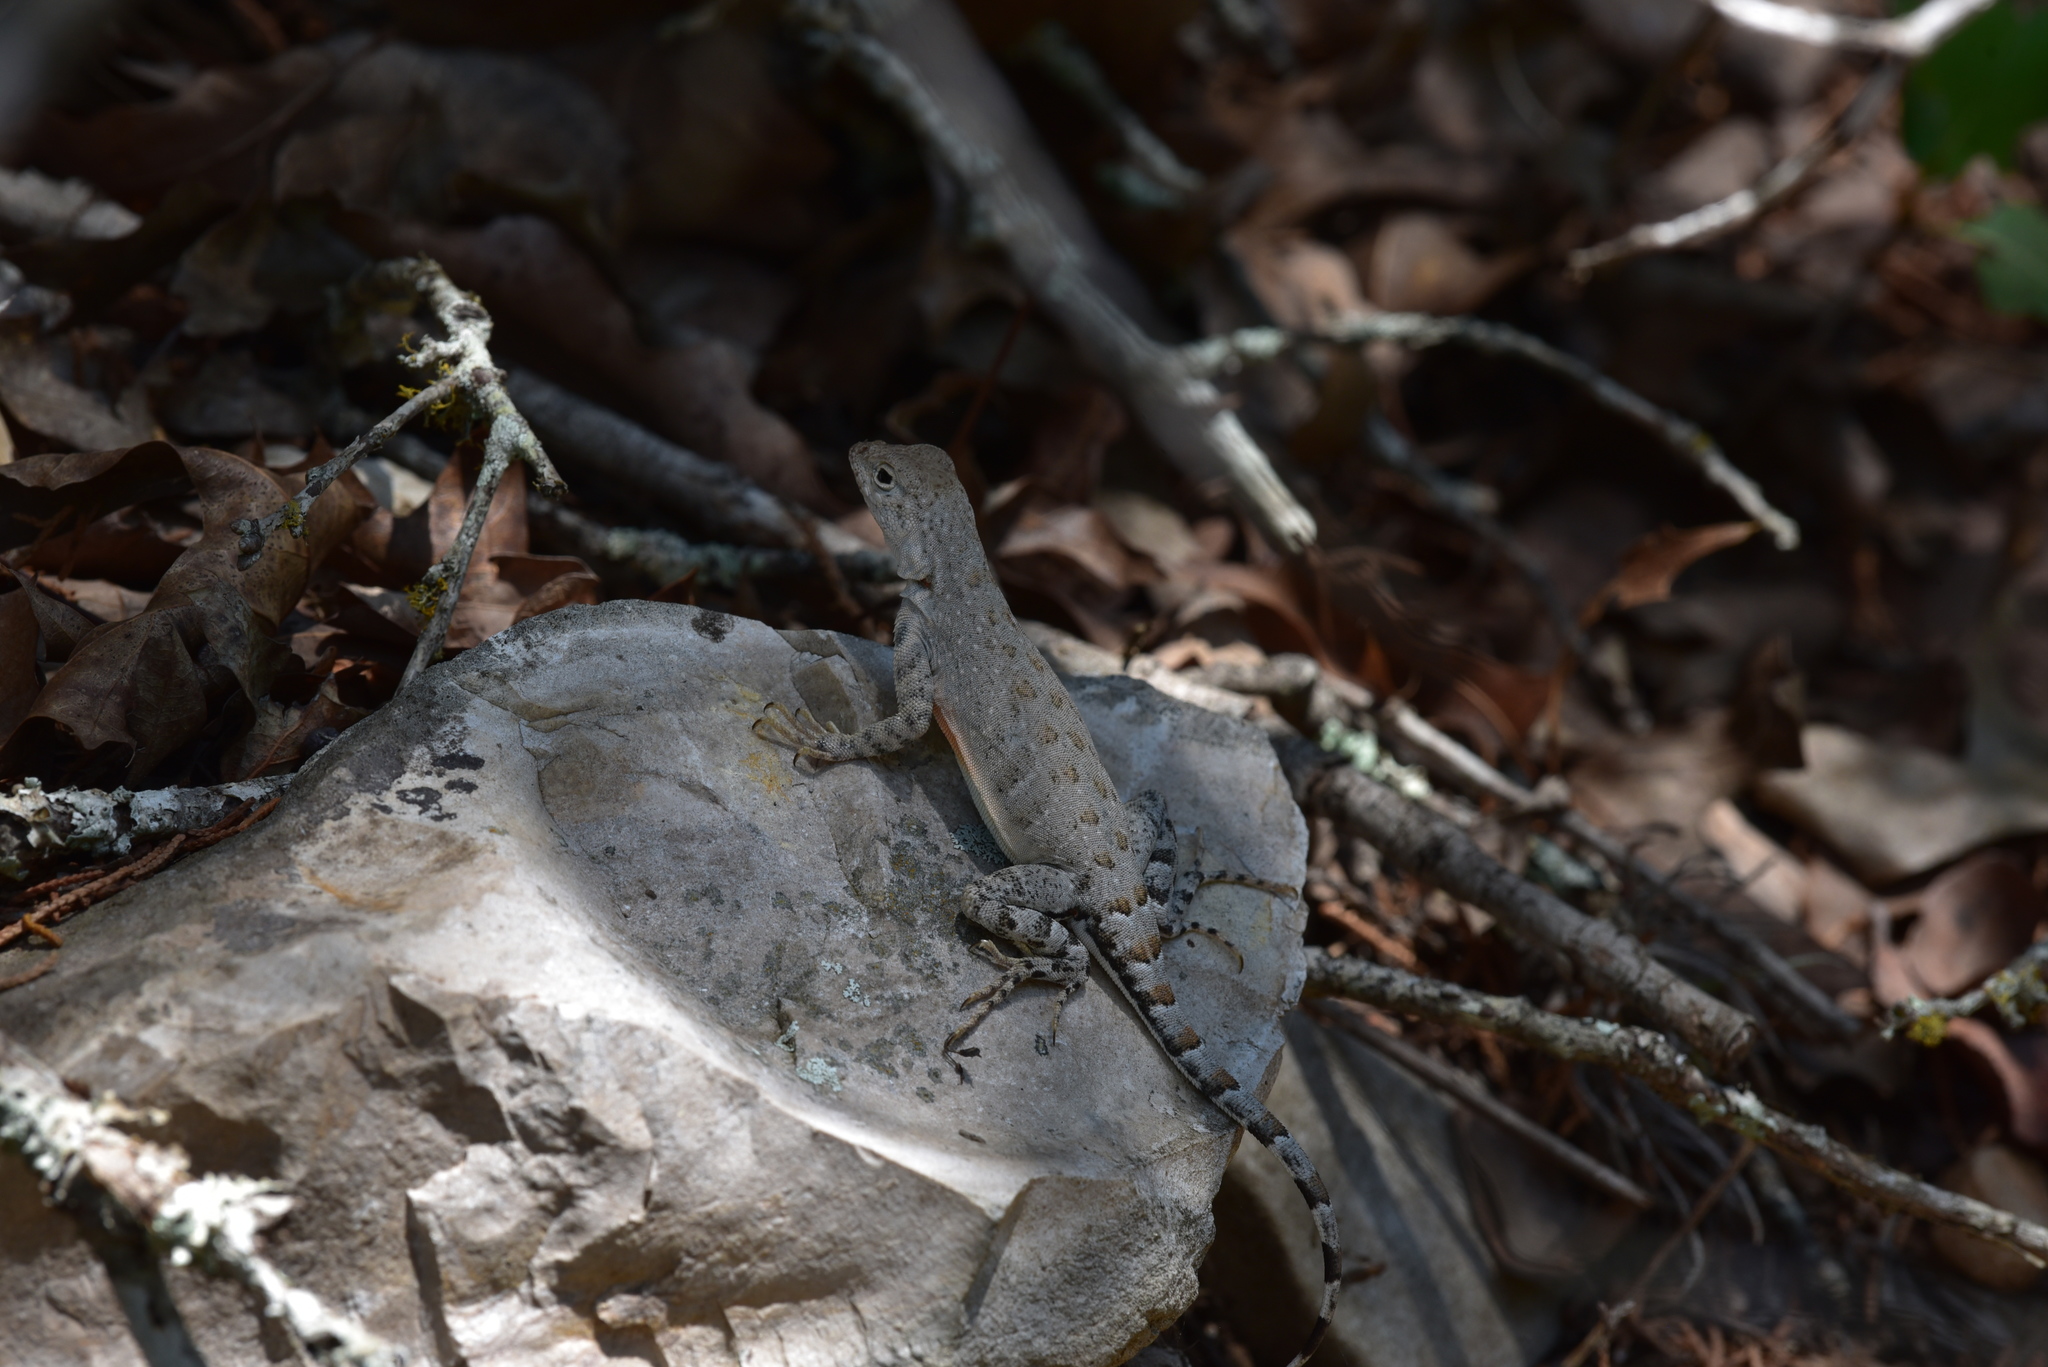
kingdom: Animalia
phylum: Chordata
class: Squamata
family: Phrynosomatidae
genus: Cophosaurus
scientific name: Cophosaurus texanus
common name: Greater earless lizard
